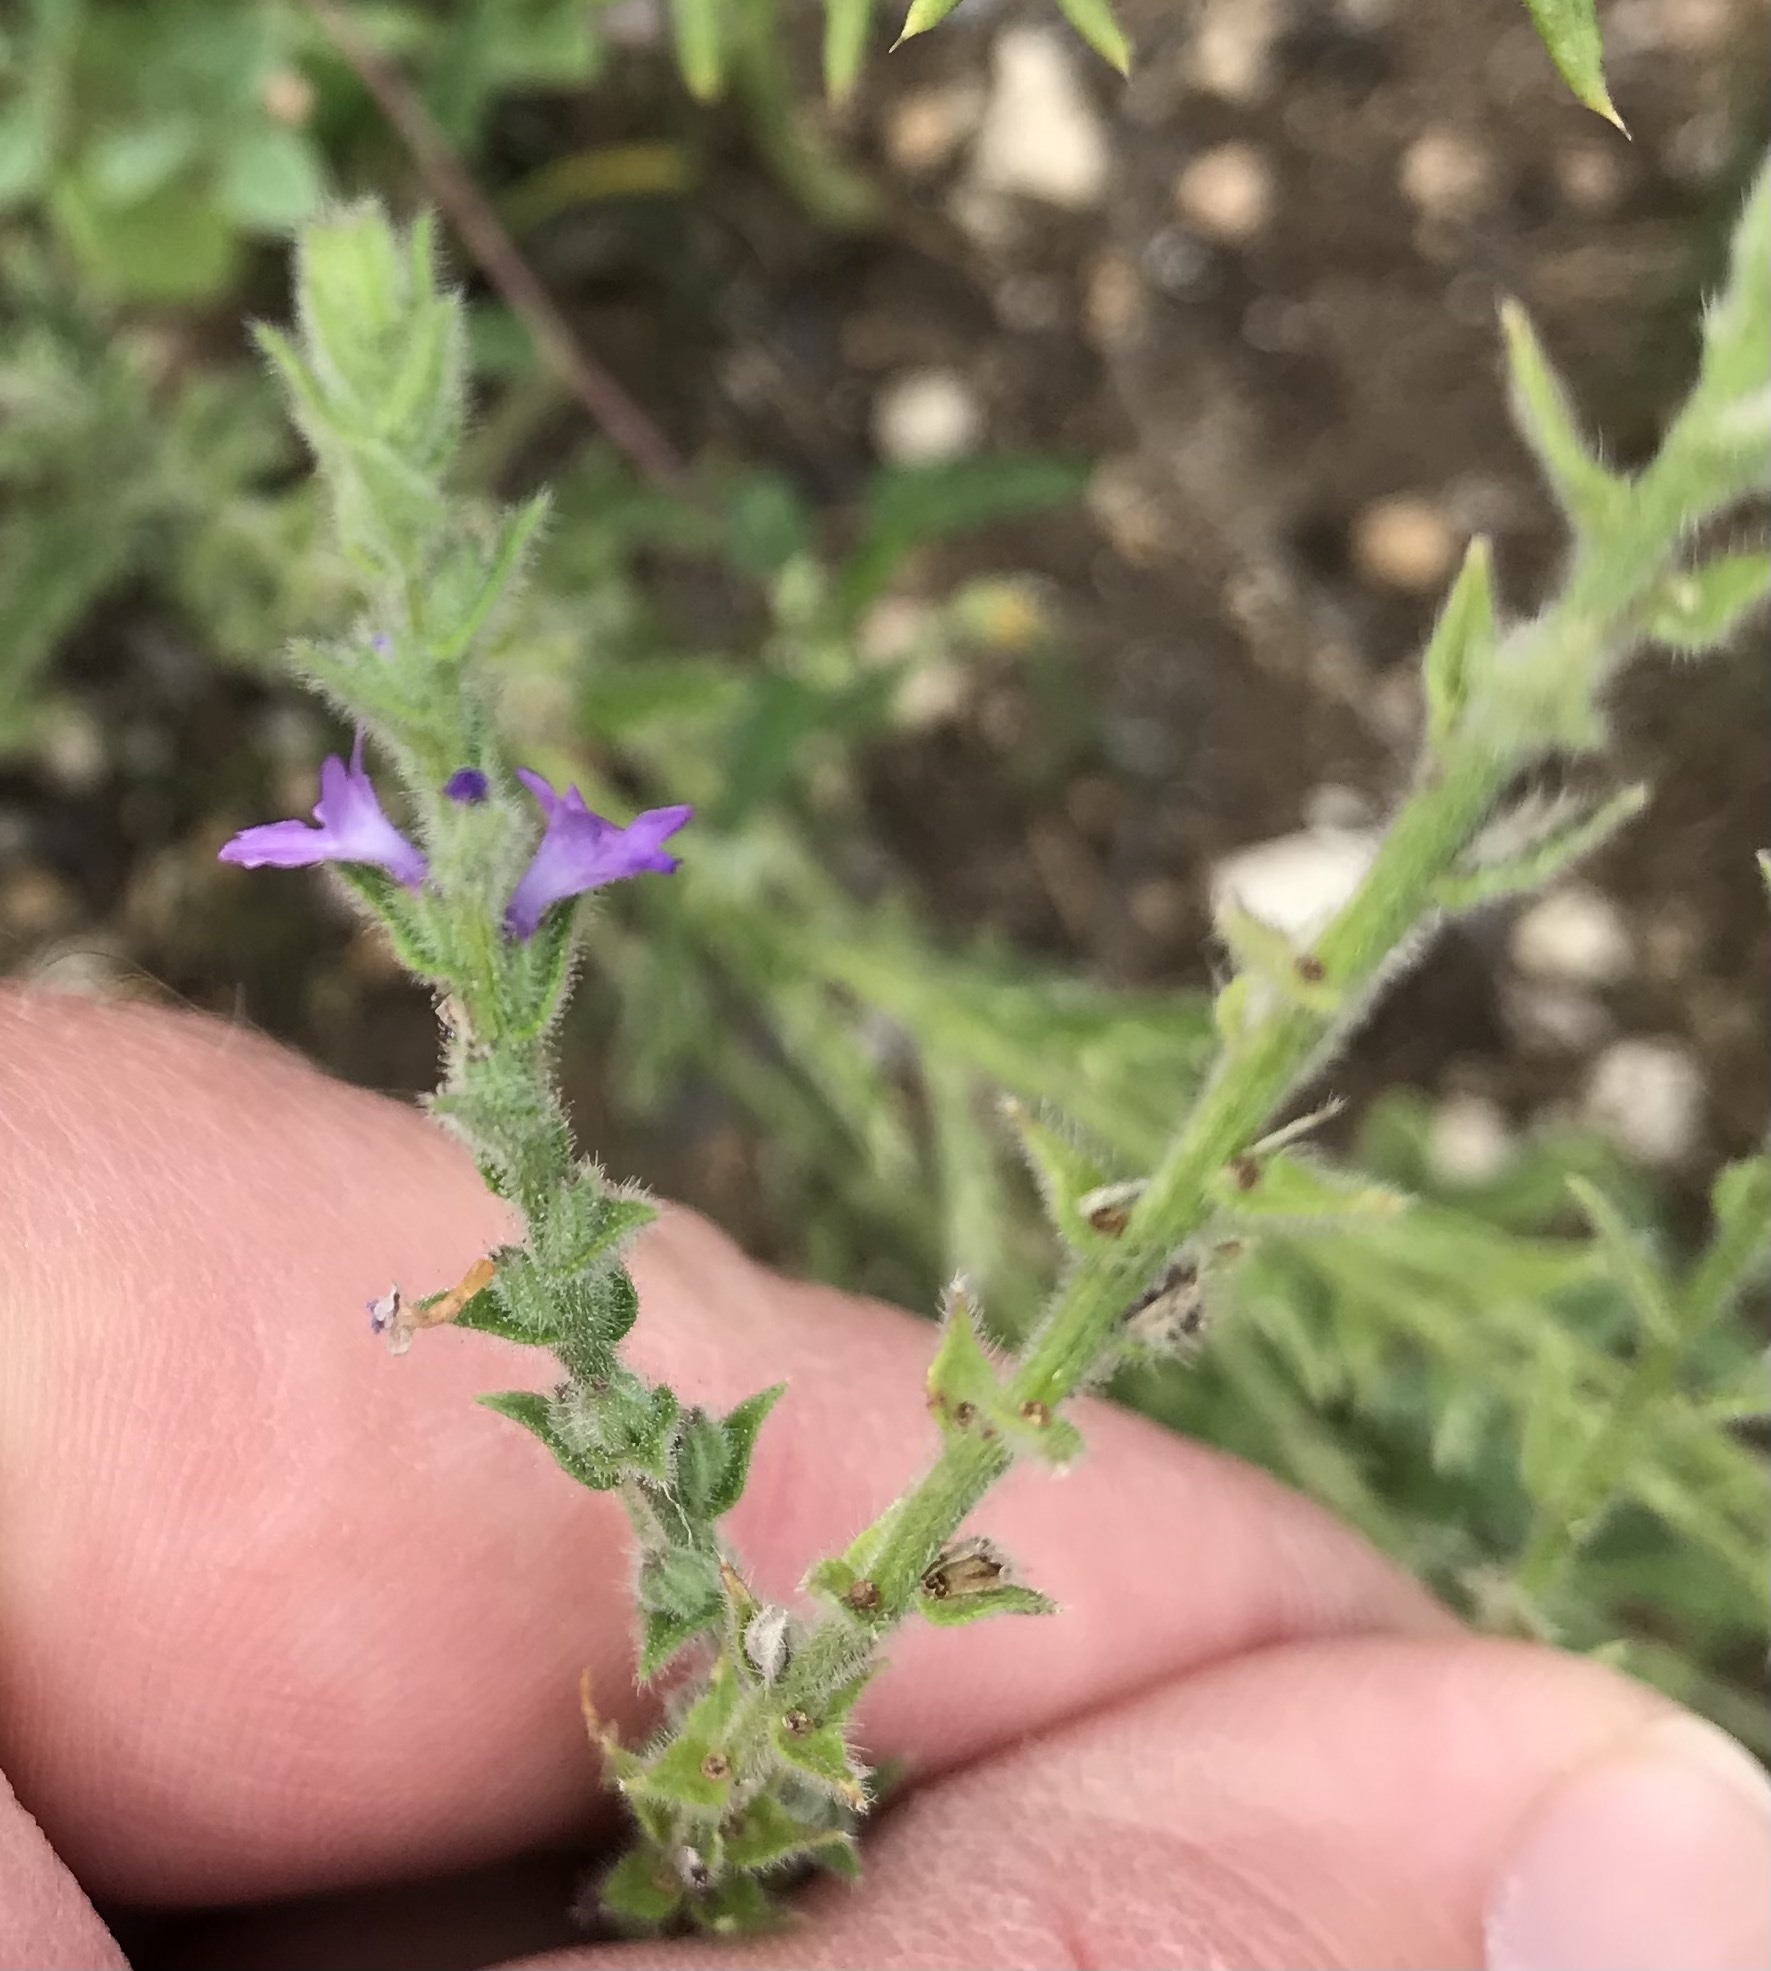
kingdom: Plantae
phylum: Tracheophyta
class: Magnoliopsida
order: Lamiales
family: Verbenaceae
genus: Verbena
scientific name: Verbena canescens
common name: Gray vervain
